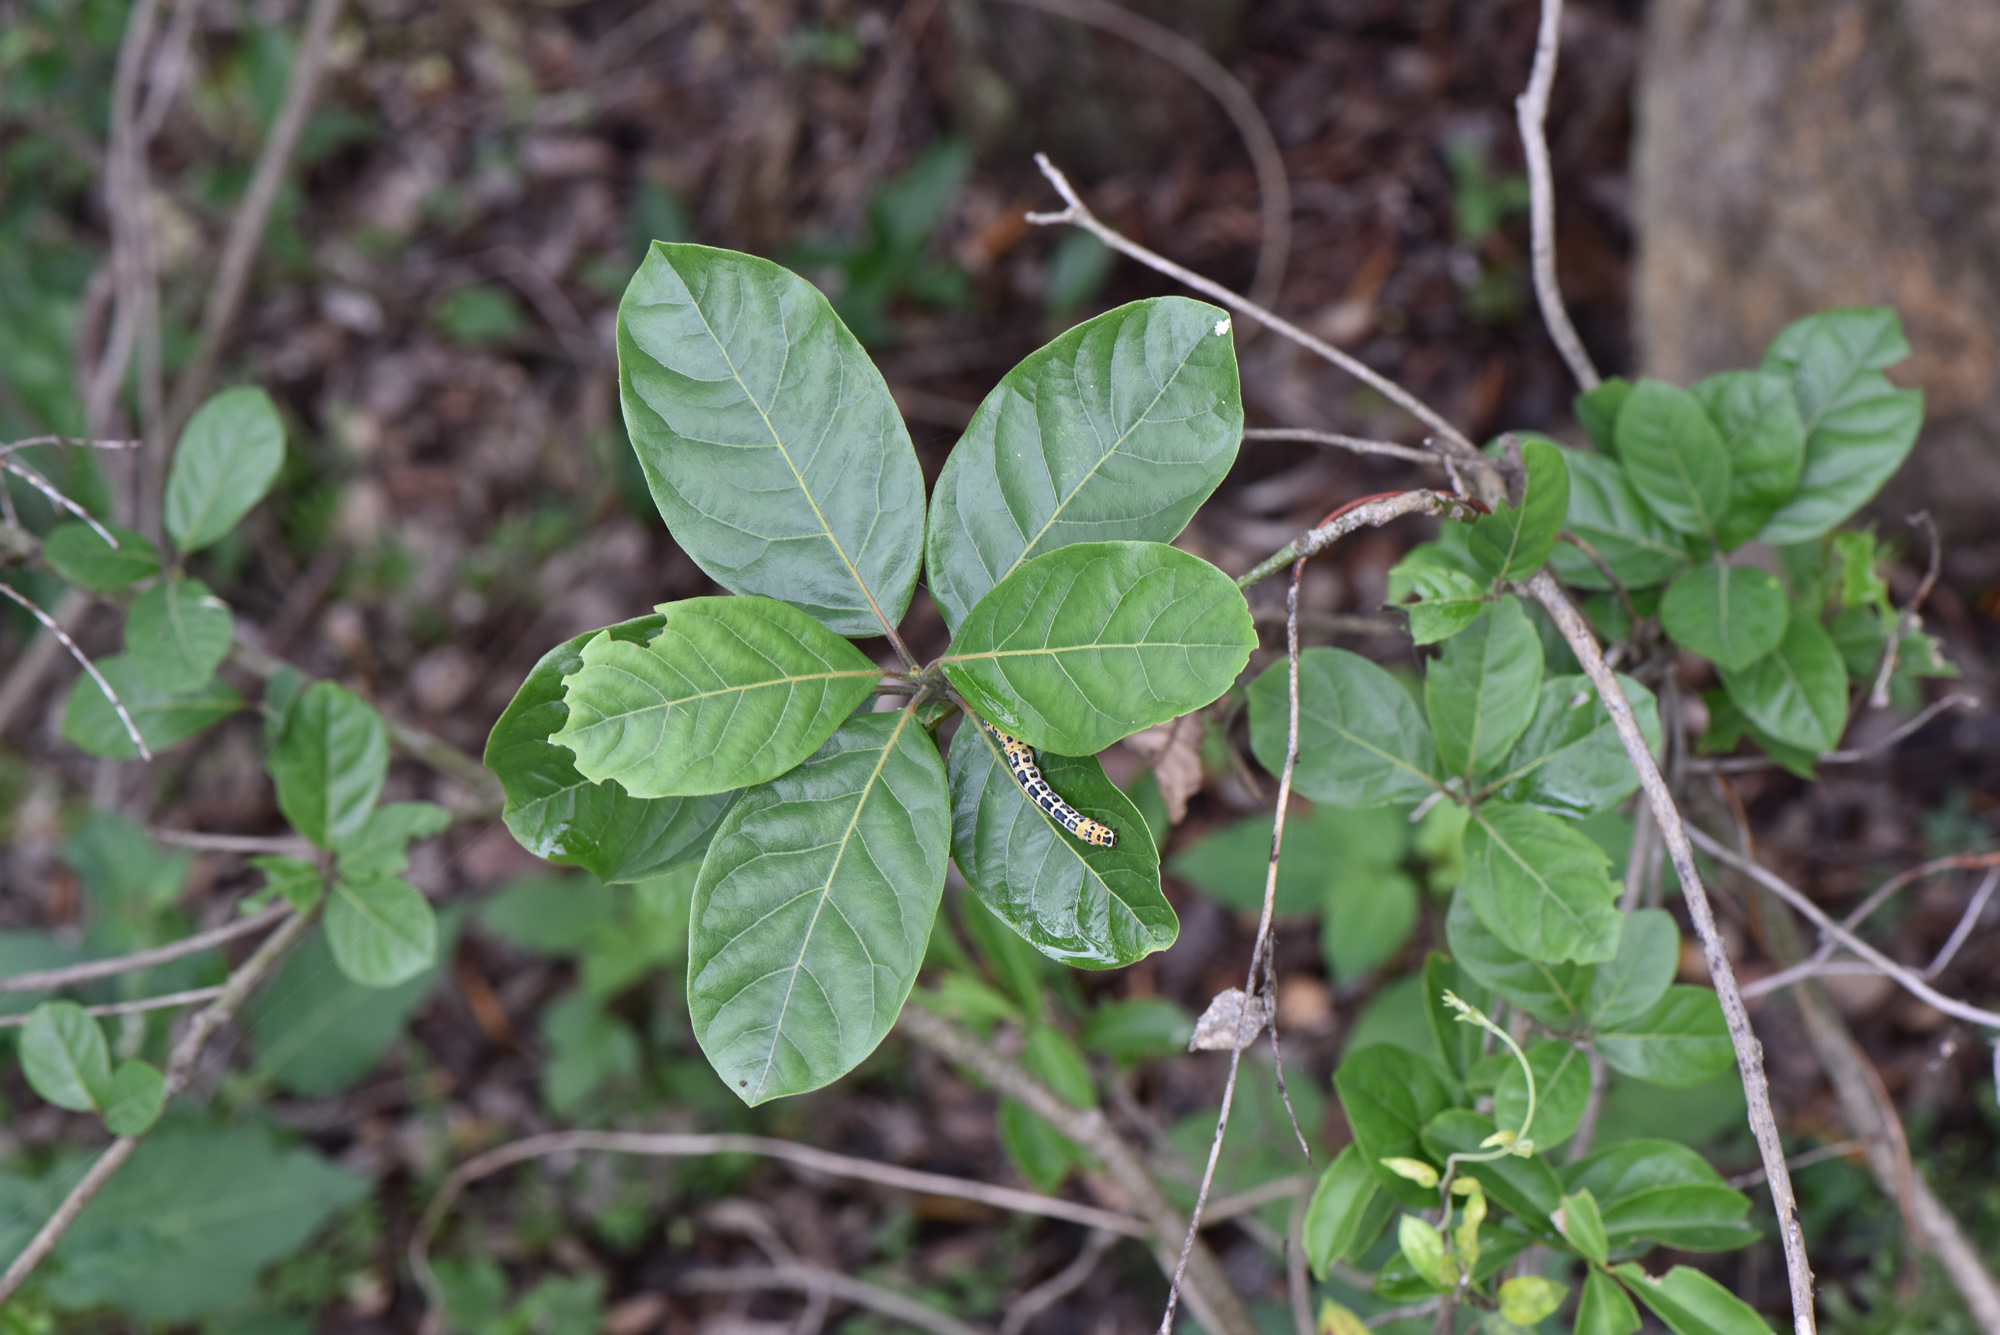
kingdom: Plantae
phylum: Tracheophyta
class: Magnoliopsida
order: Laurales
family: Lauraceae
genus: Litsea
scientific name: Litsea glutinosa
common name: Indian-laurel
